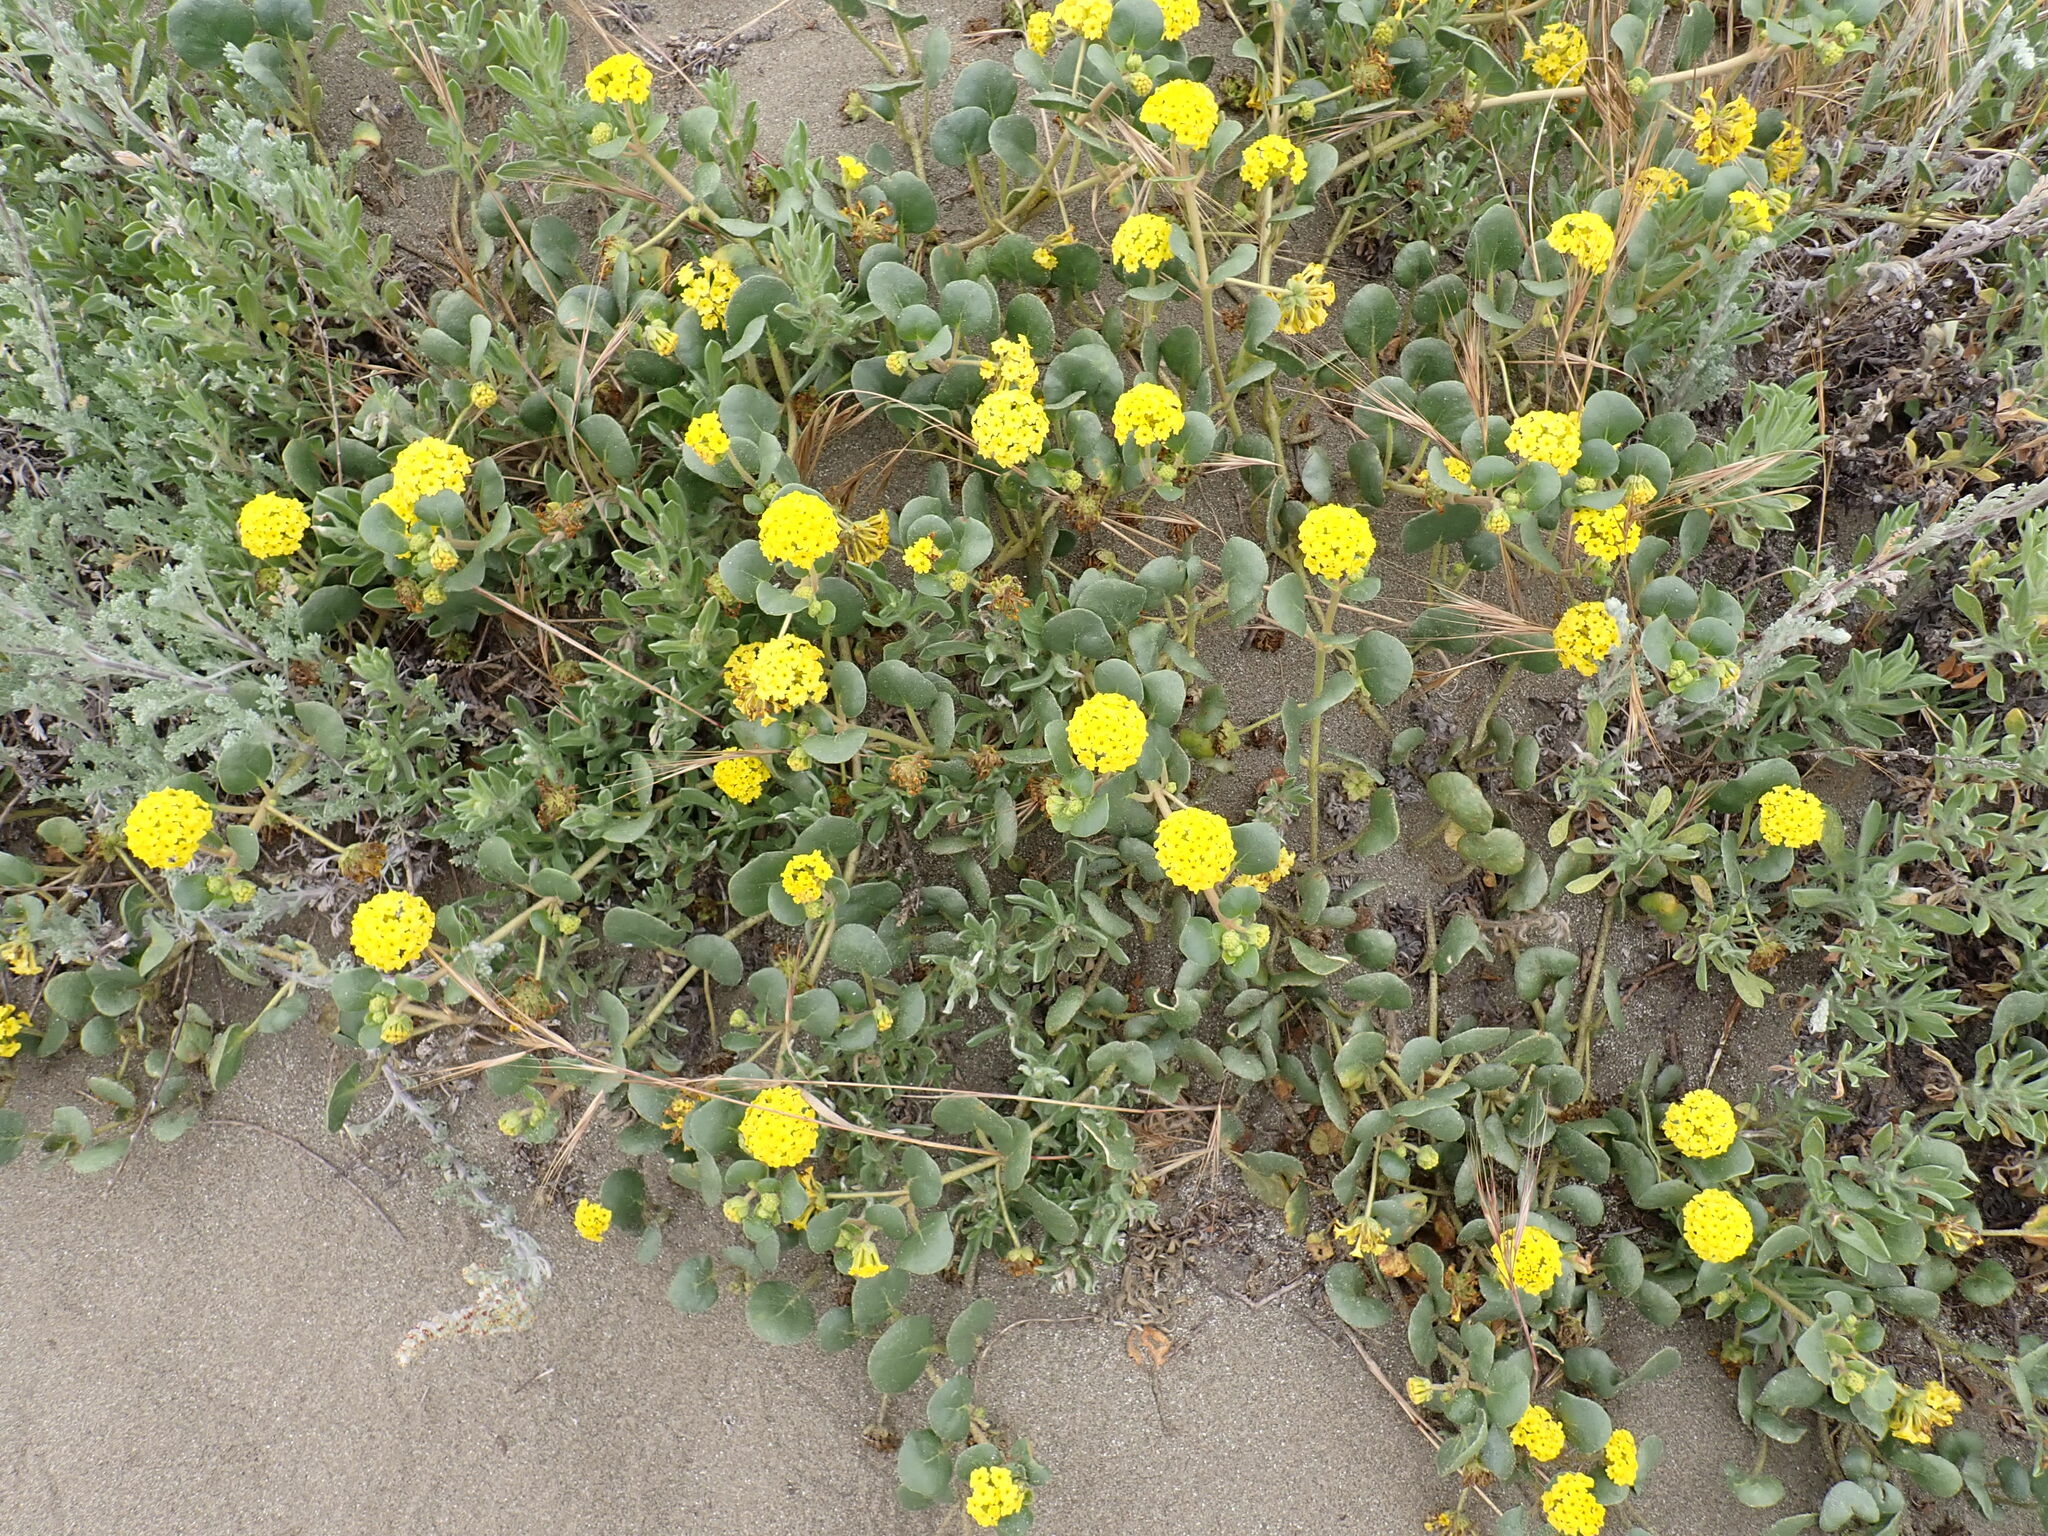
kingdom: Plantae
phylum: Tracheophyta
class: Magnoliopsida
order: Caryophyllales
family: Nyctaginaceae
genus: Abronia
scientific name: Abronia latifolia
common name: Yellow sand-verbena
